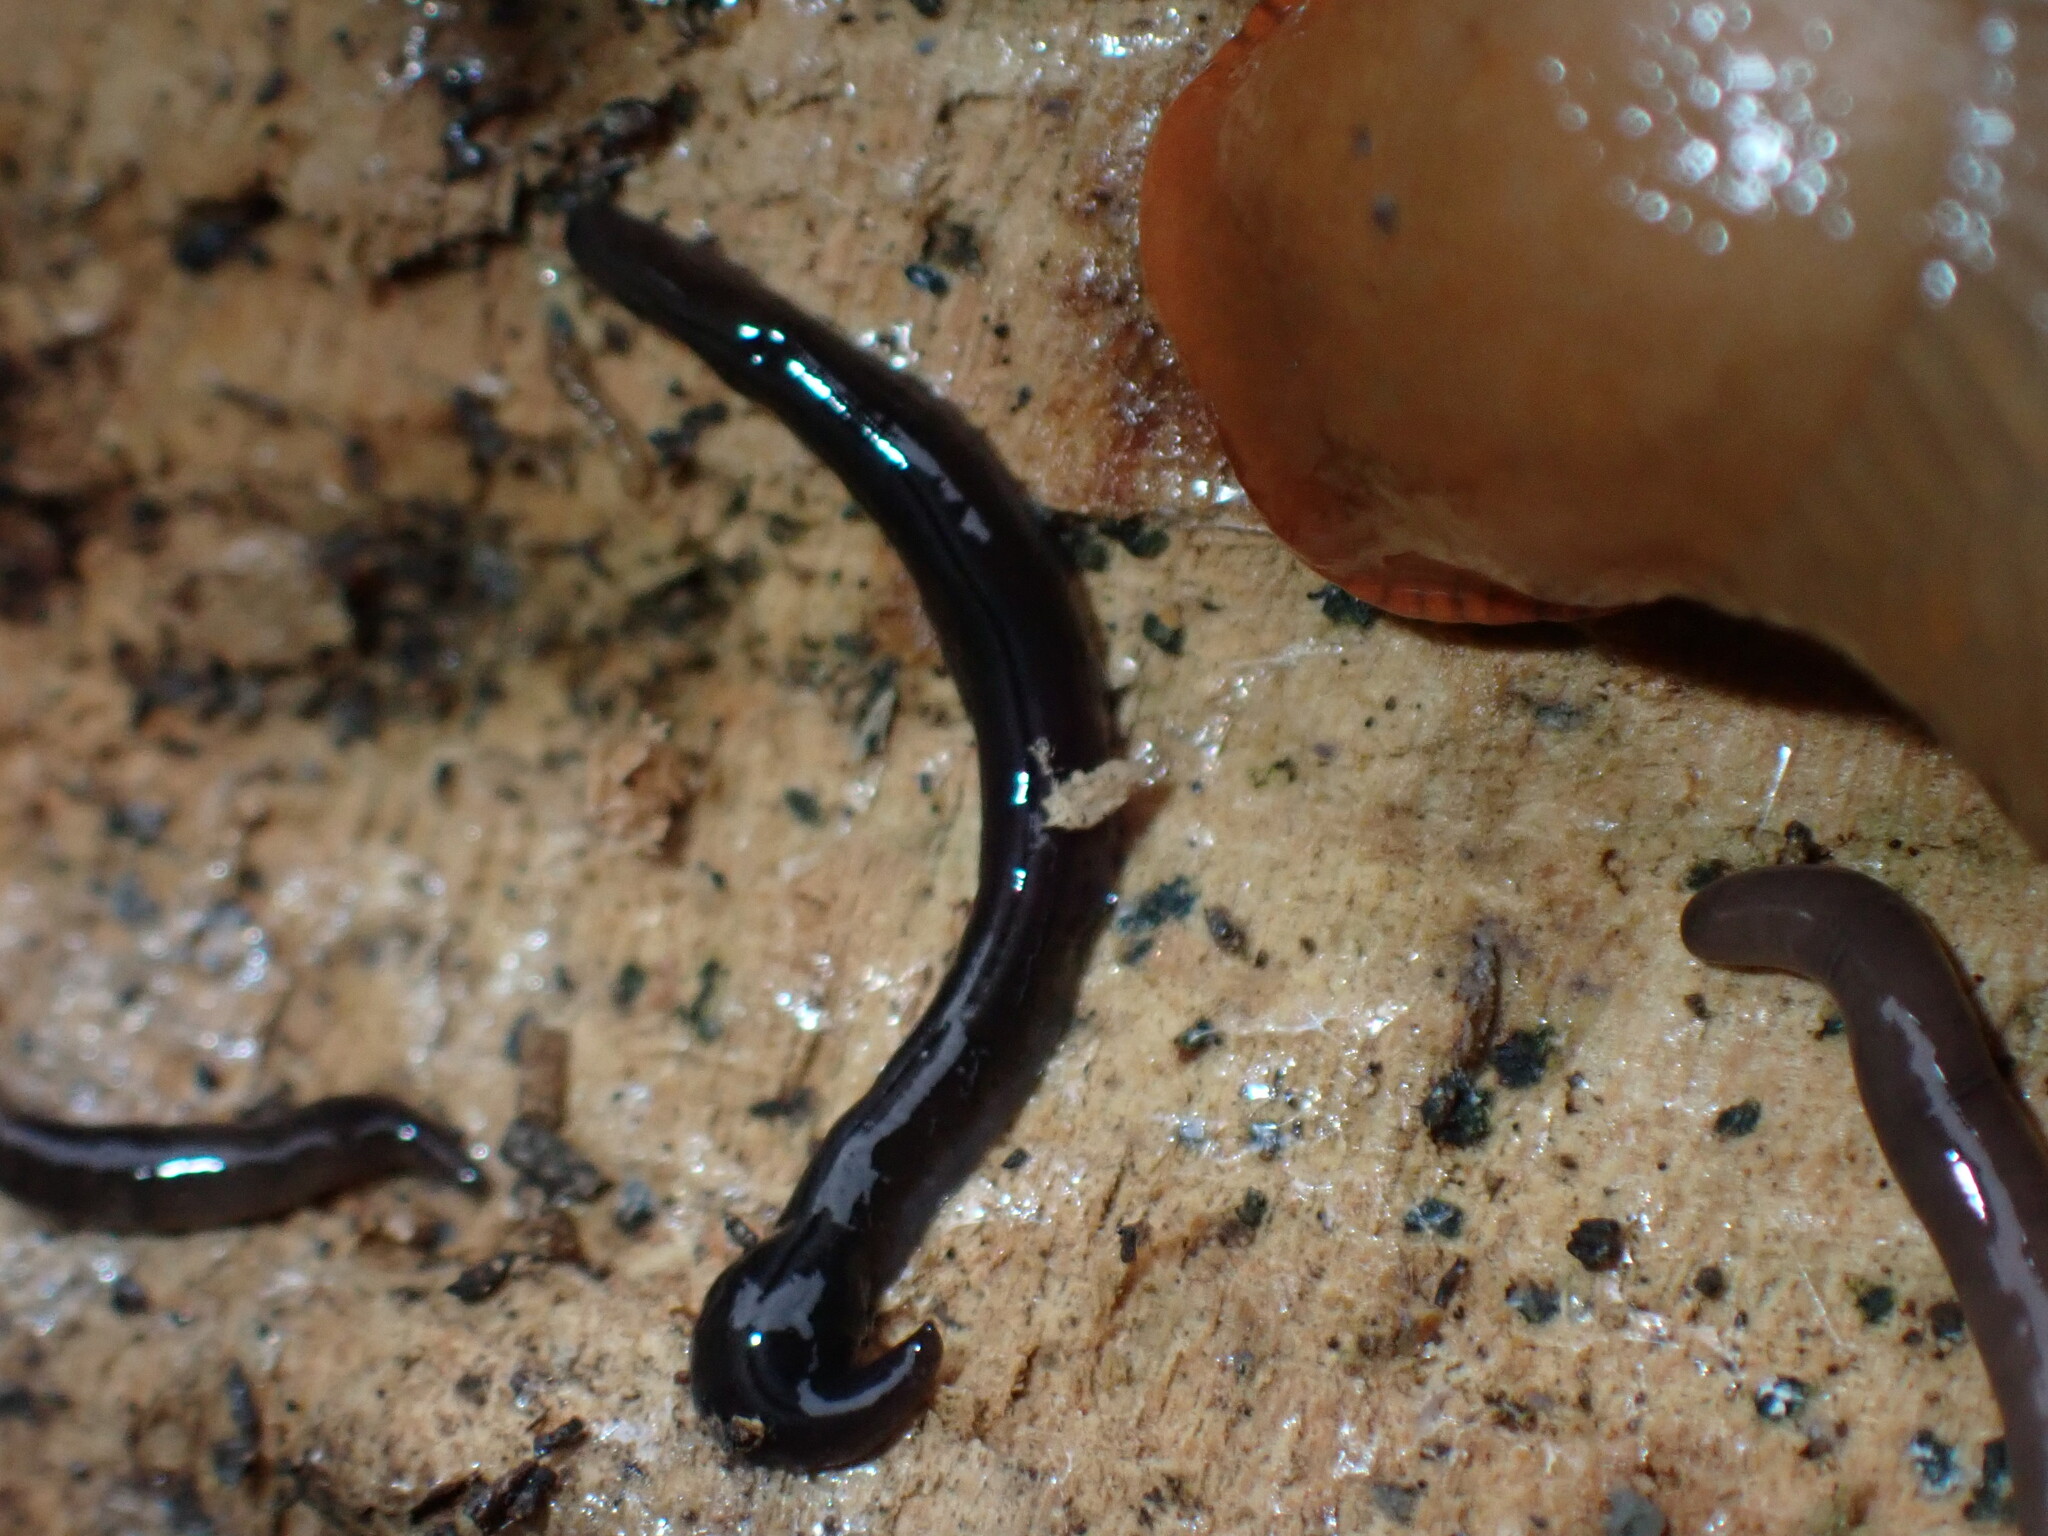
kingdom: Animalia
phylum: Platyhelminthes
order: Tricladida
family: Geoplanidae
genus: Parakontikia
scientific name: Parakontikia ventrolineata
